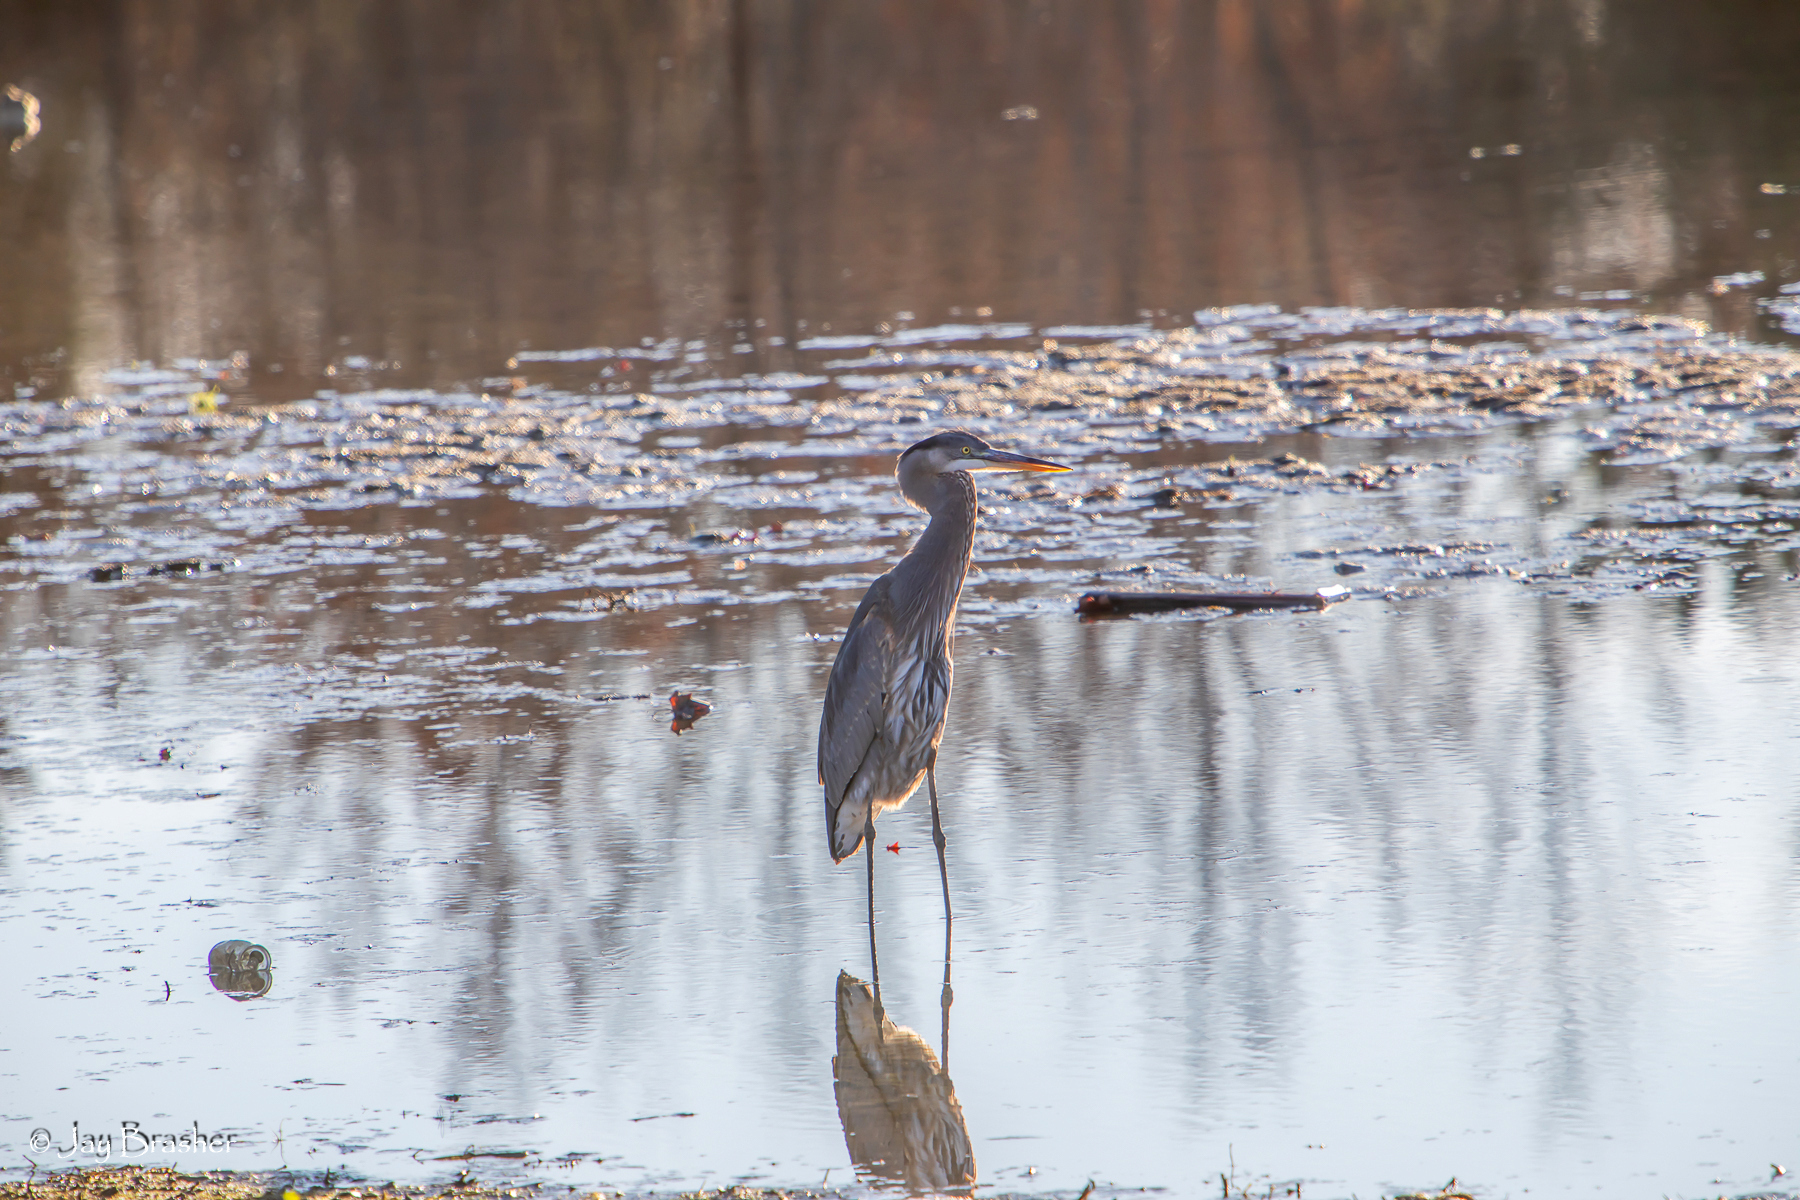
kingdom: Animalia
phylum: Chordata
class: Aves
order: Pelecaniformes
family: Ardeidae
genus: Ardea
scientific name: Ardea herodias
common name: Great blue heron
